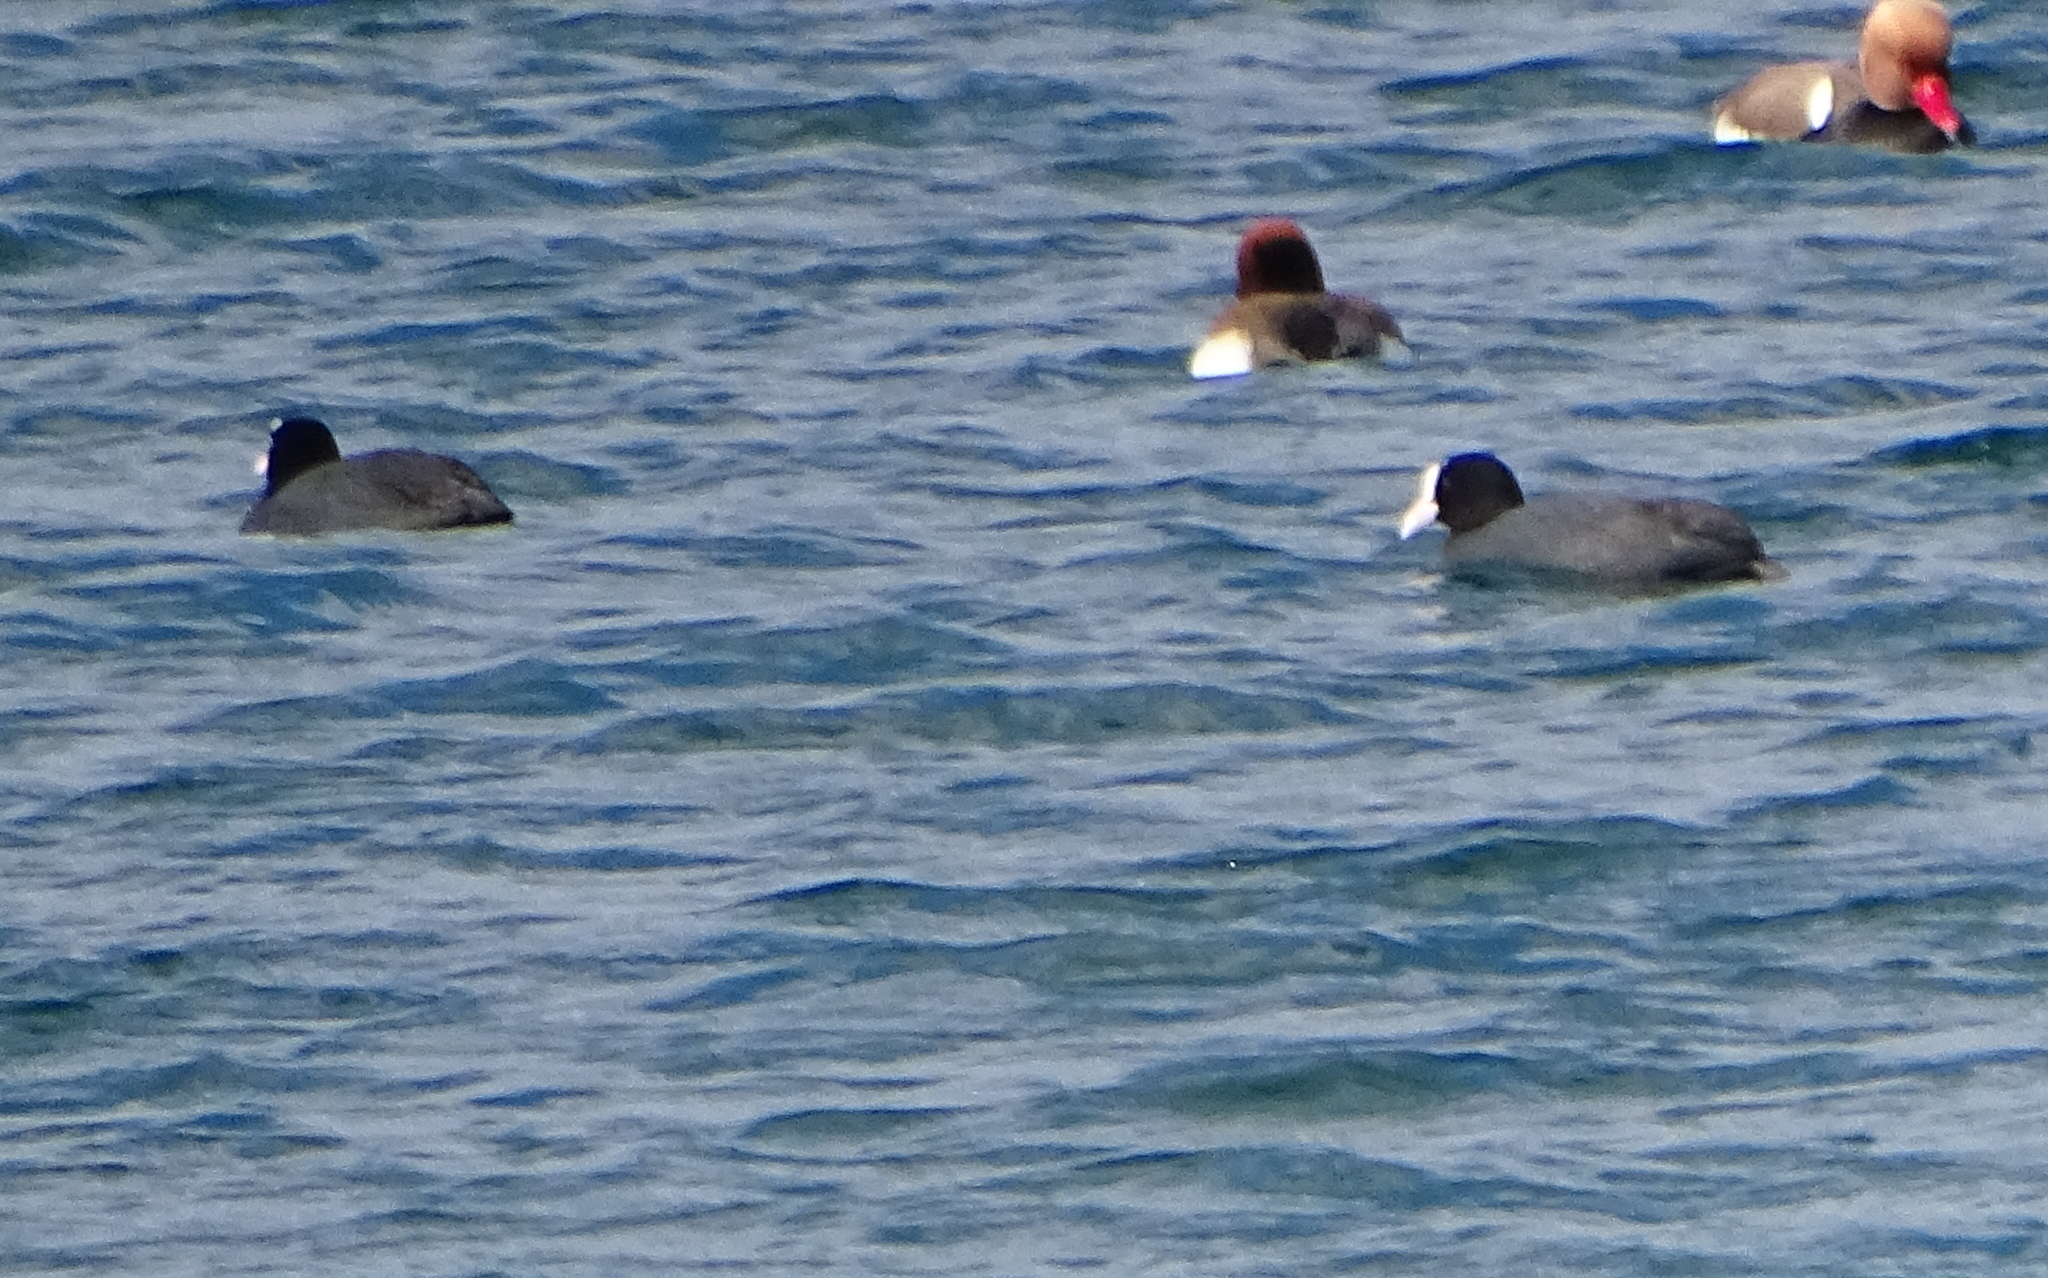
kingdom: Animalia
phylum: Chordata
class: Aves
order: Gruiformes
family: Rallidae
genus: Fulica
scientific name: Fulica atra
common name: Eurasian coot
